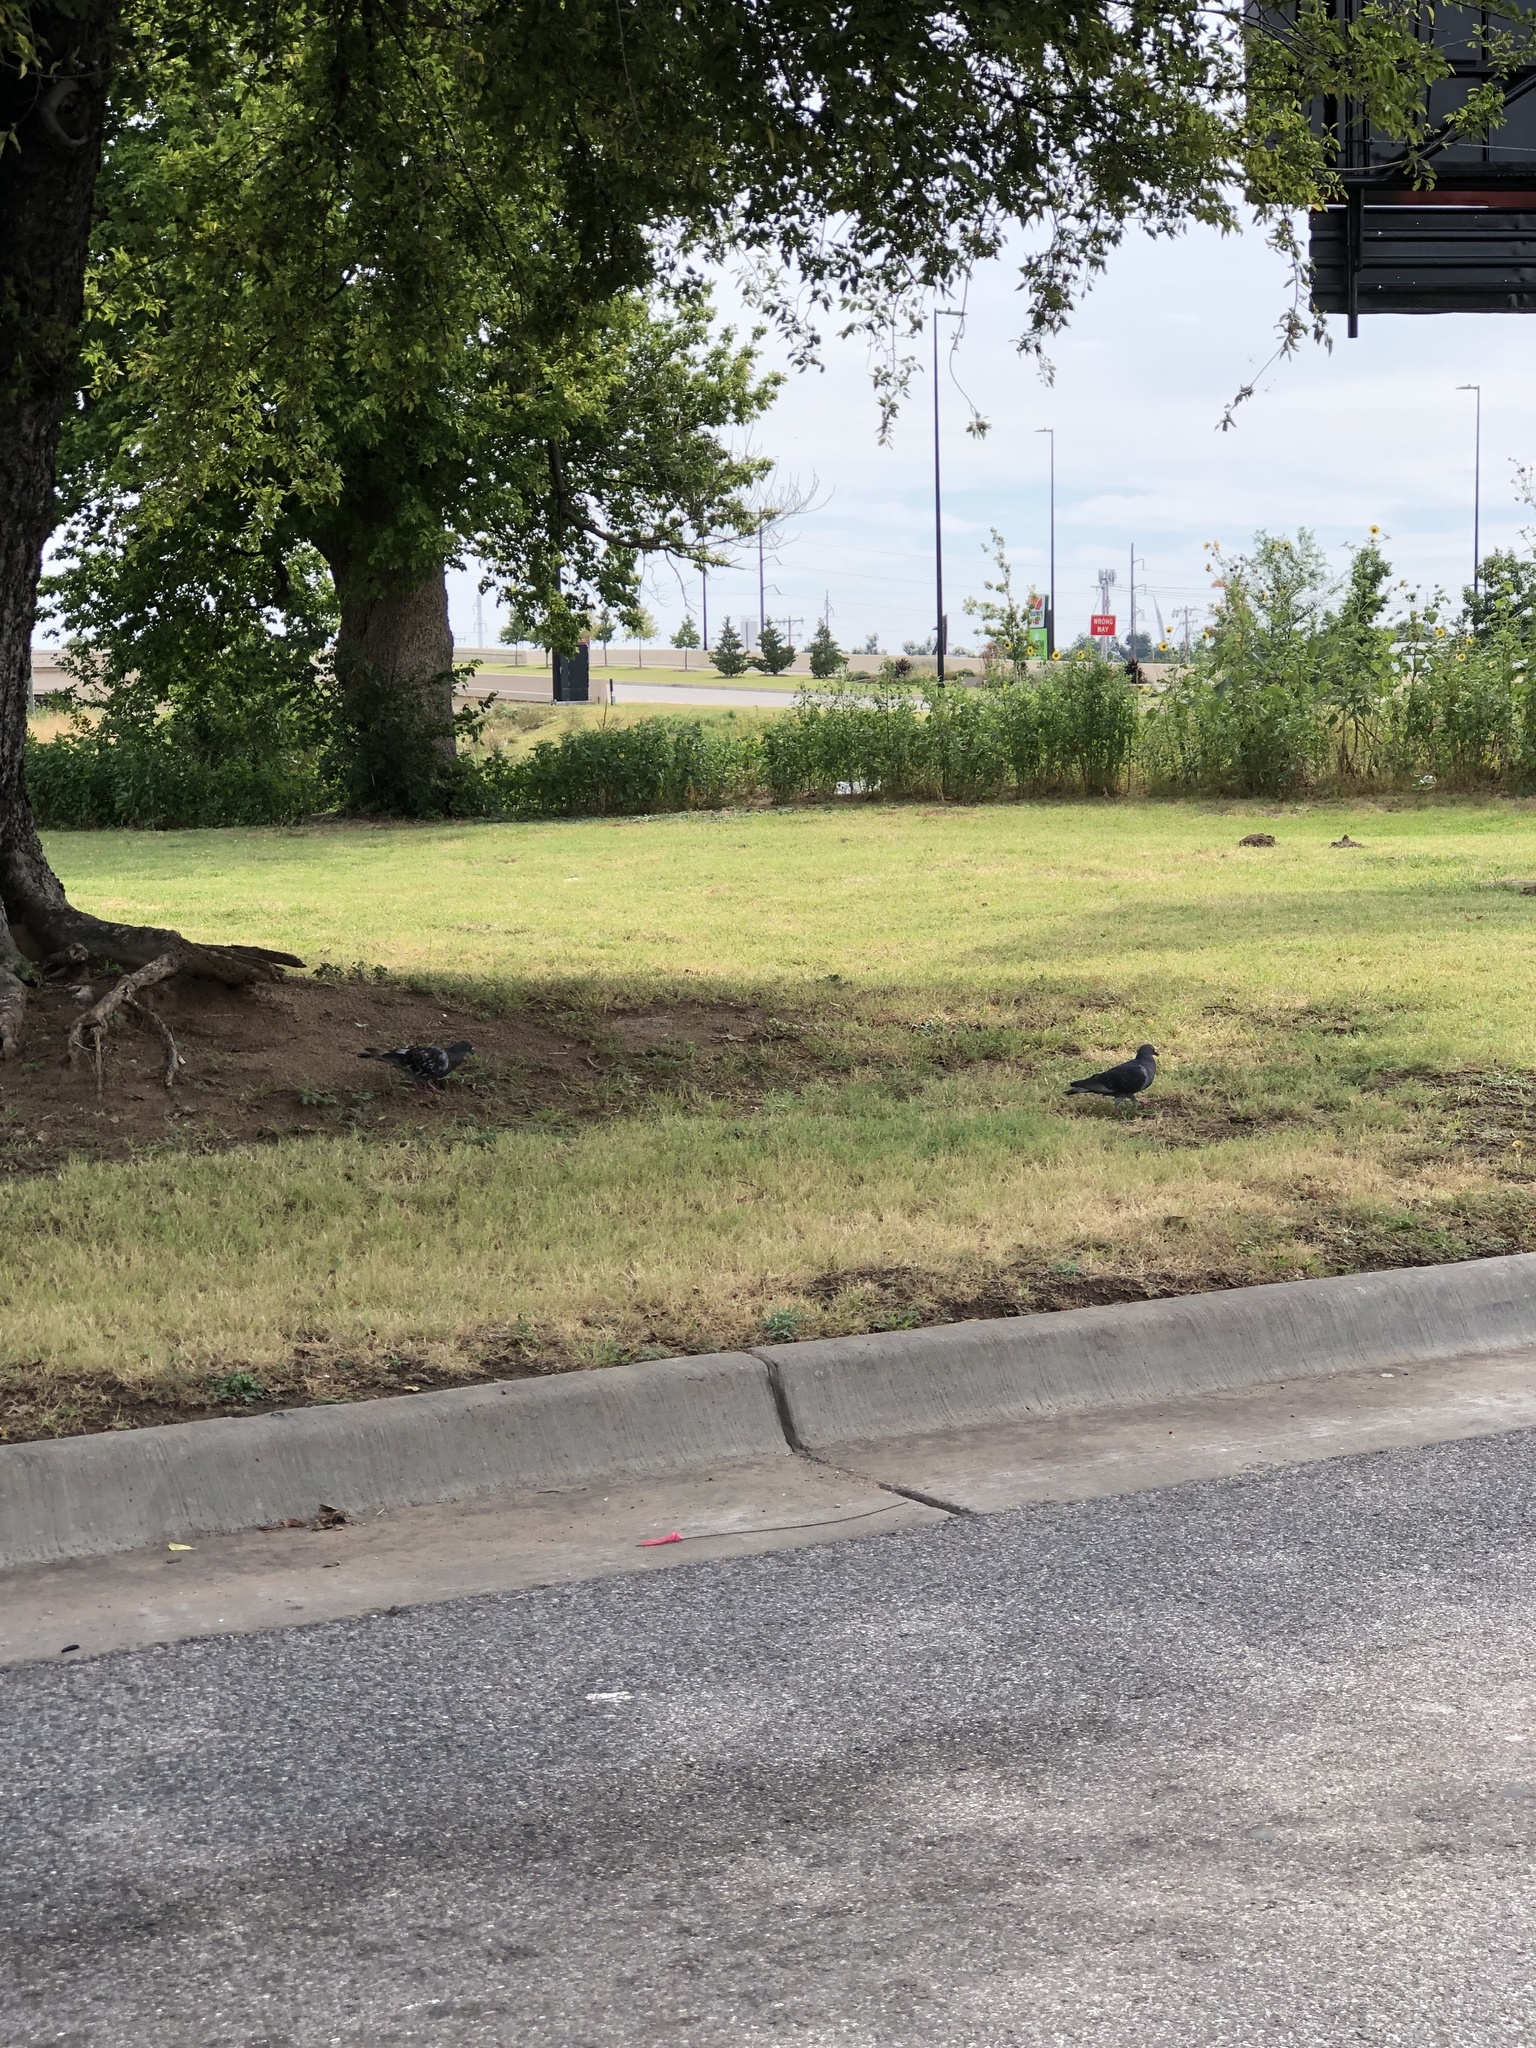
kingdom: Animalia
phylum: Chordata
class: Aves
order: Columbiformes
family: Columbidae
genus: Columba
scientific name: Columba livia
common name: Rock pigeon
